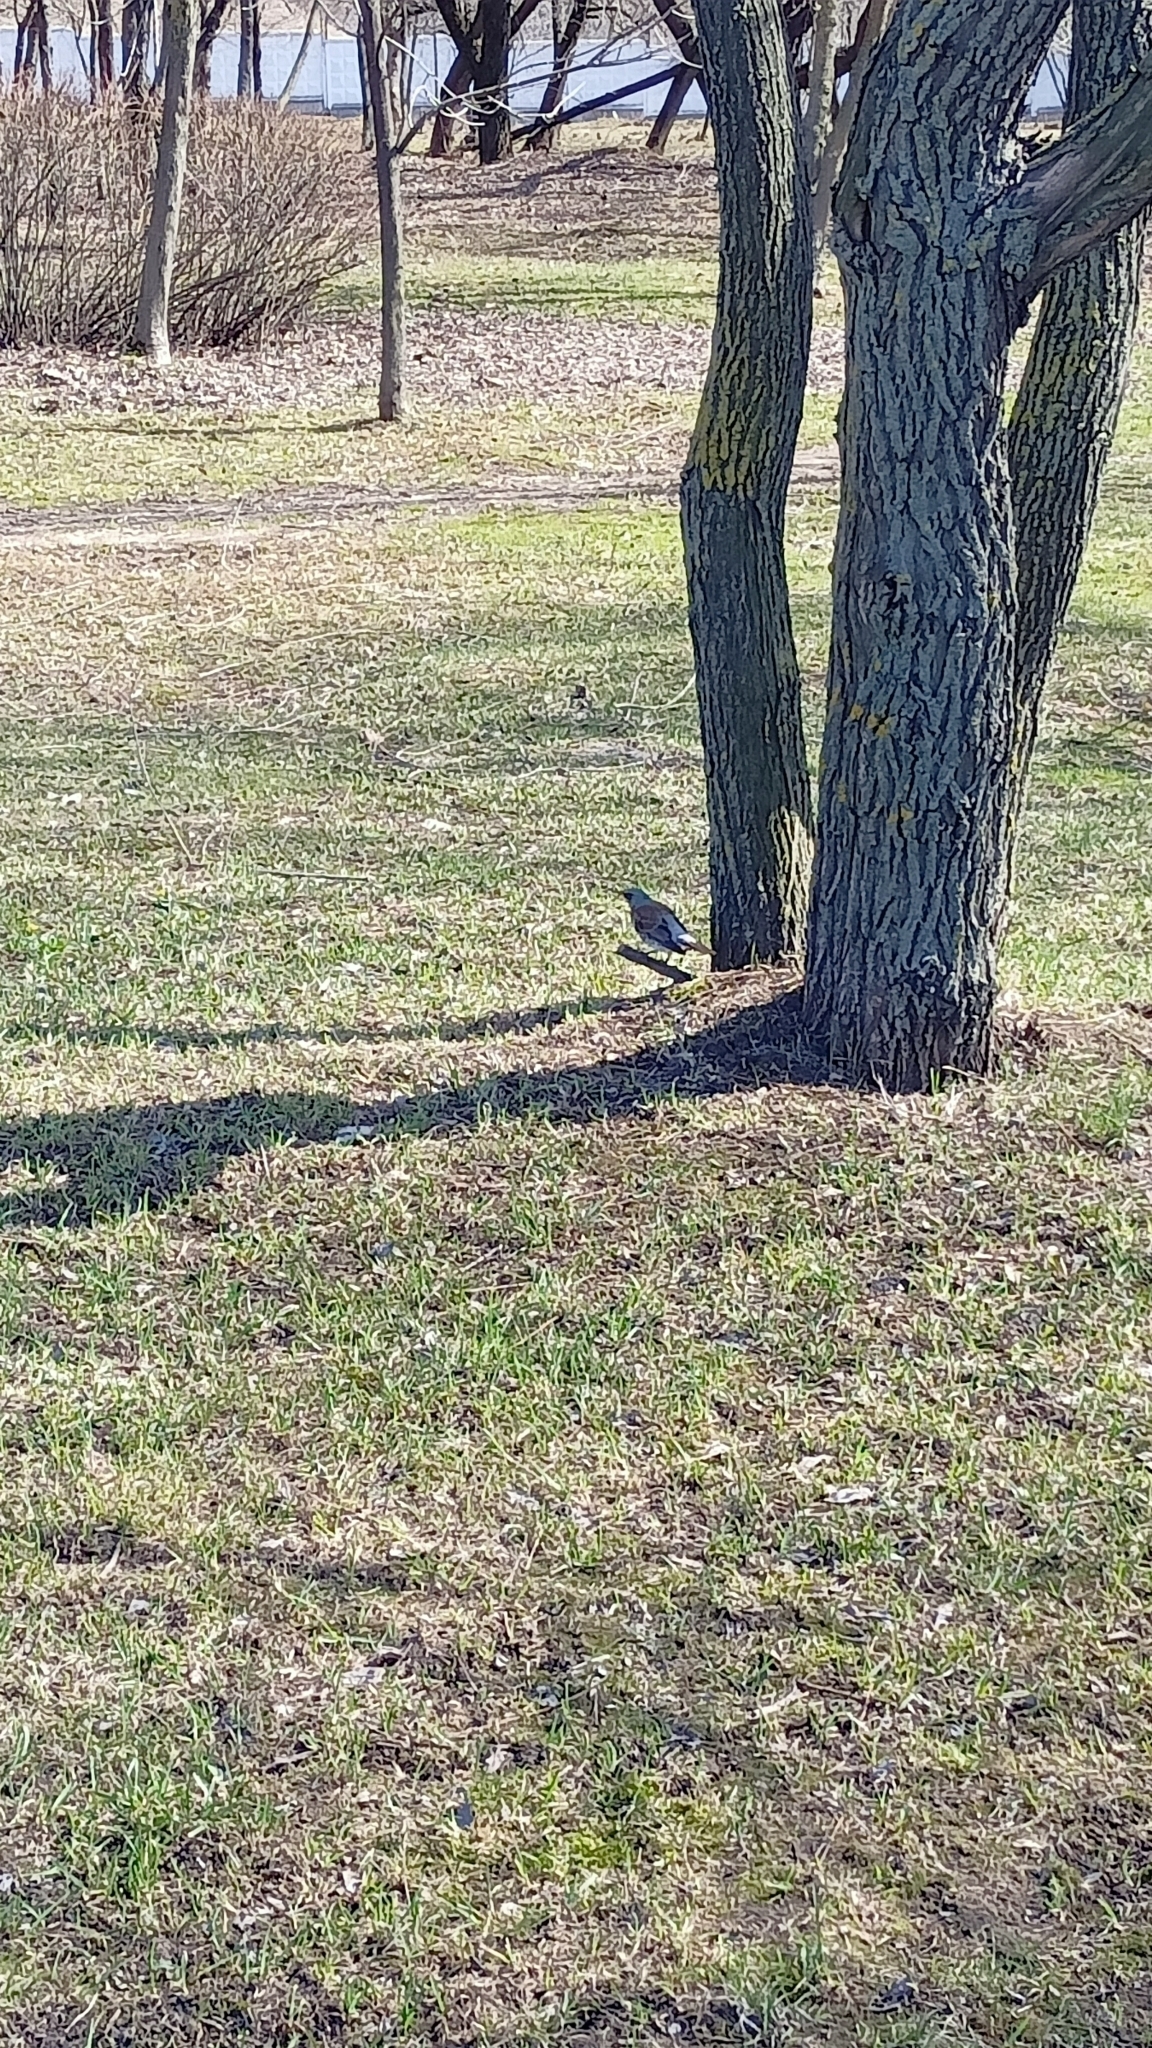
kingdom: Animalia
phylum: Chordata
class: Aves
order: Passeriformes
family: Turdidae
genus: Turdus
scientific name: Turdus pilaris
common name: Fieldfare
